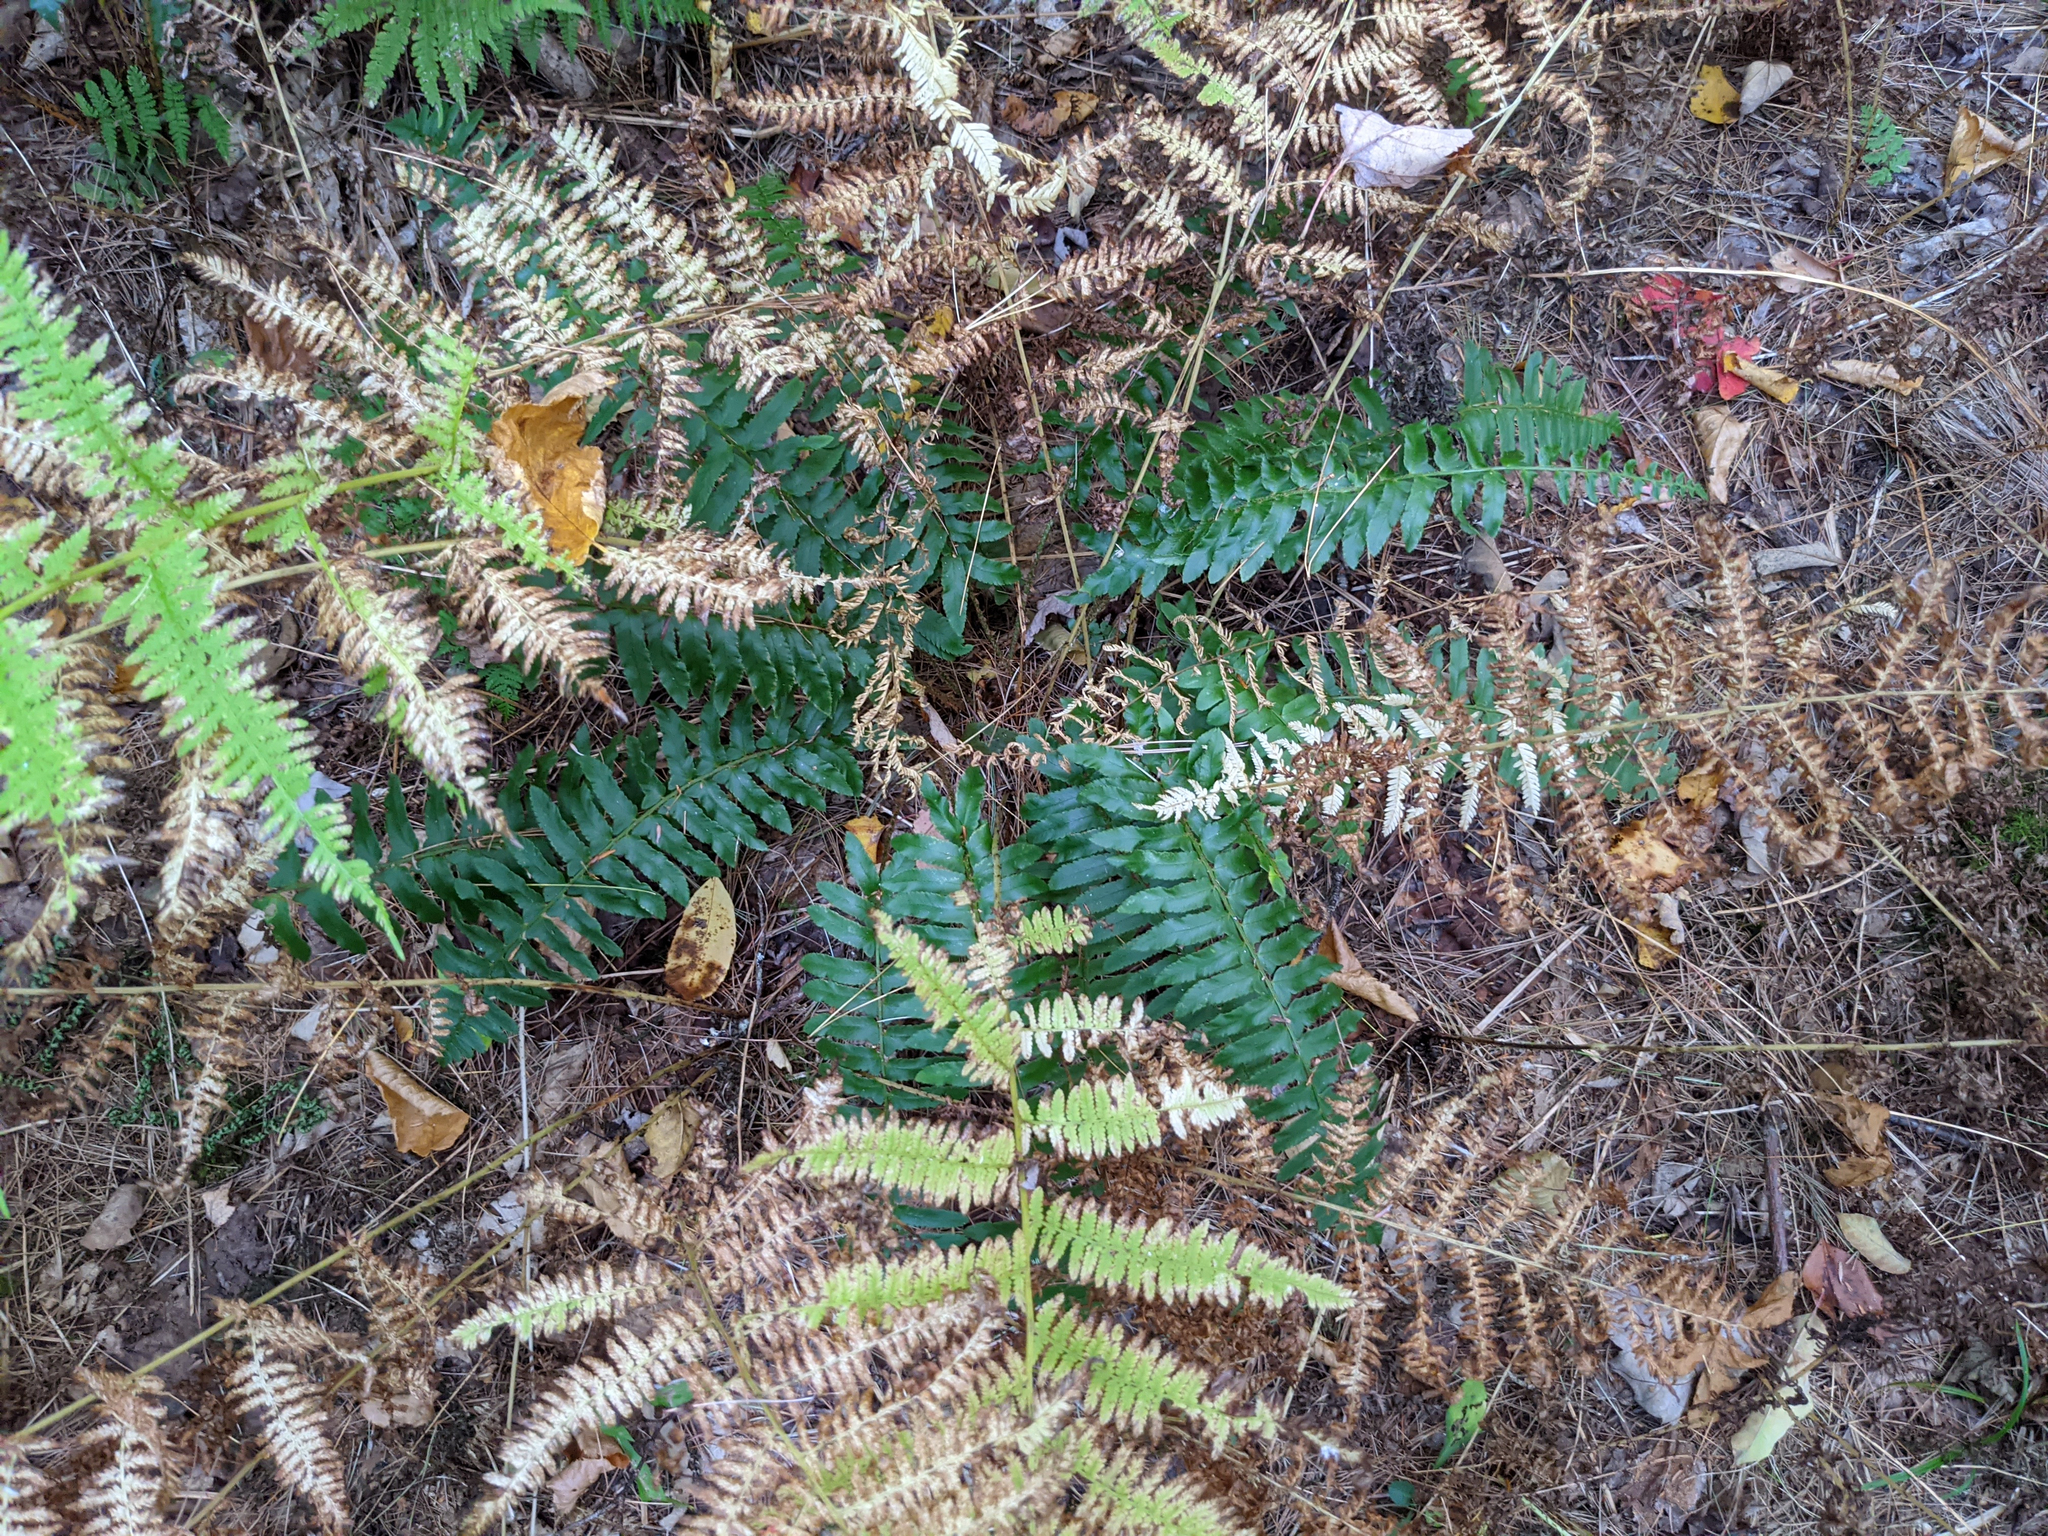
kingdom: Plantae
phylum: Tracheophyta
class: Polypodiopsida
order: Polypodiales
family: Dryopteridaceae
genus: Polystichum
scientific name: Polystichum acrostichoides
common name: Christmas fern
